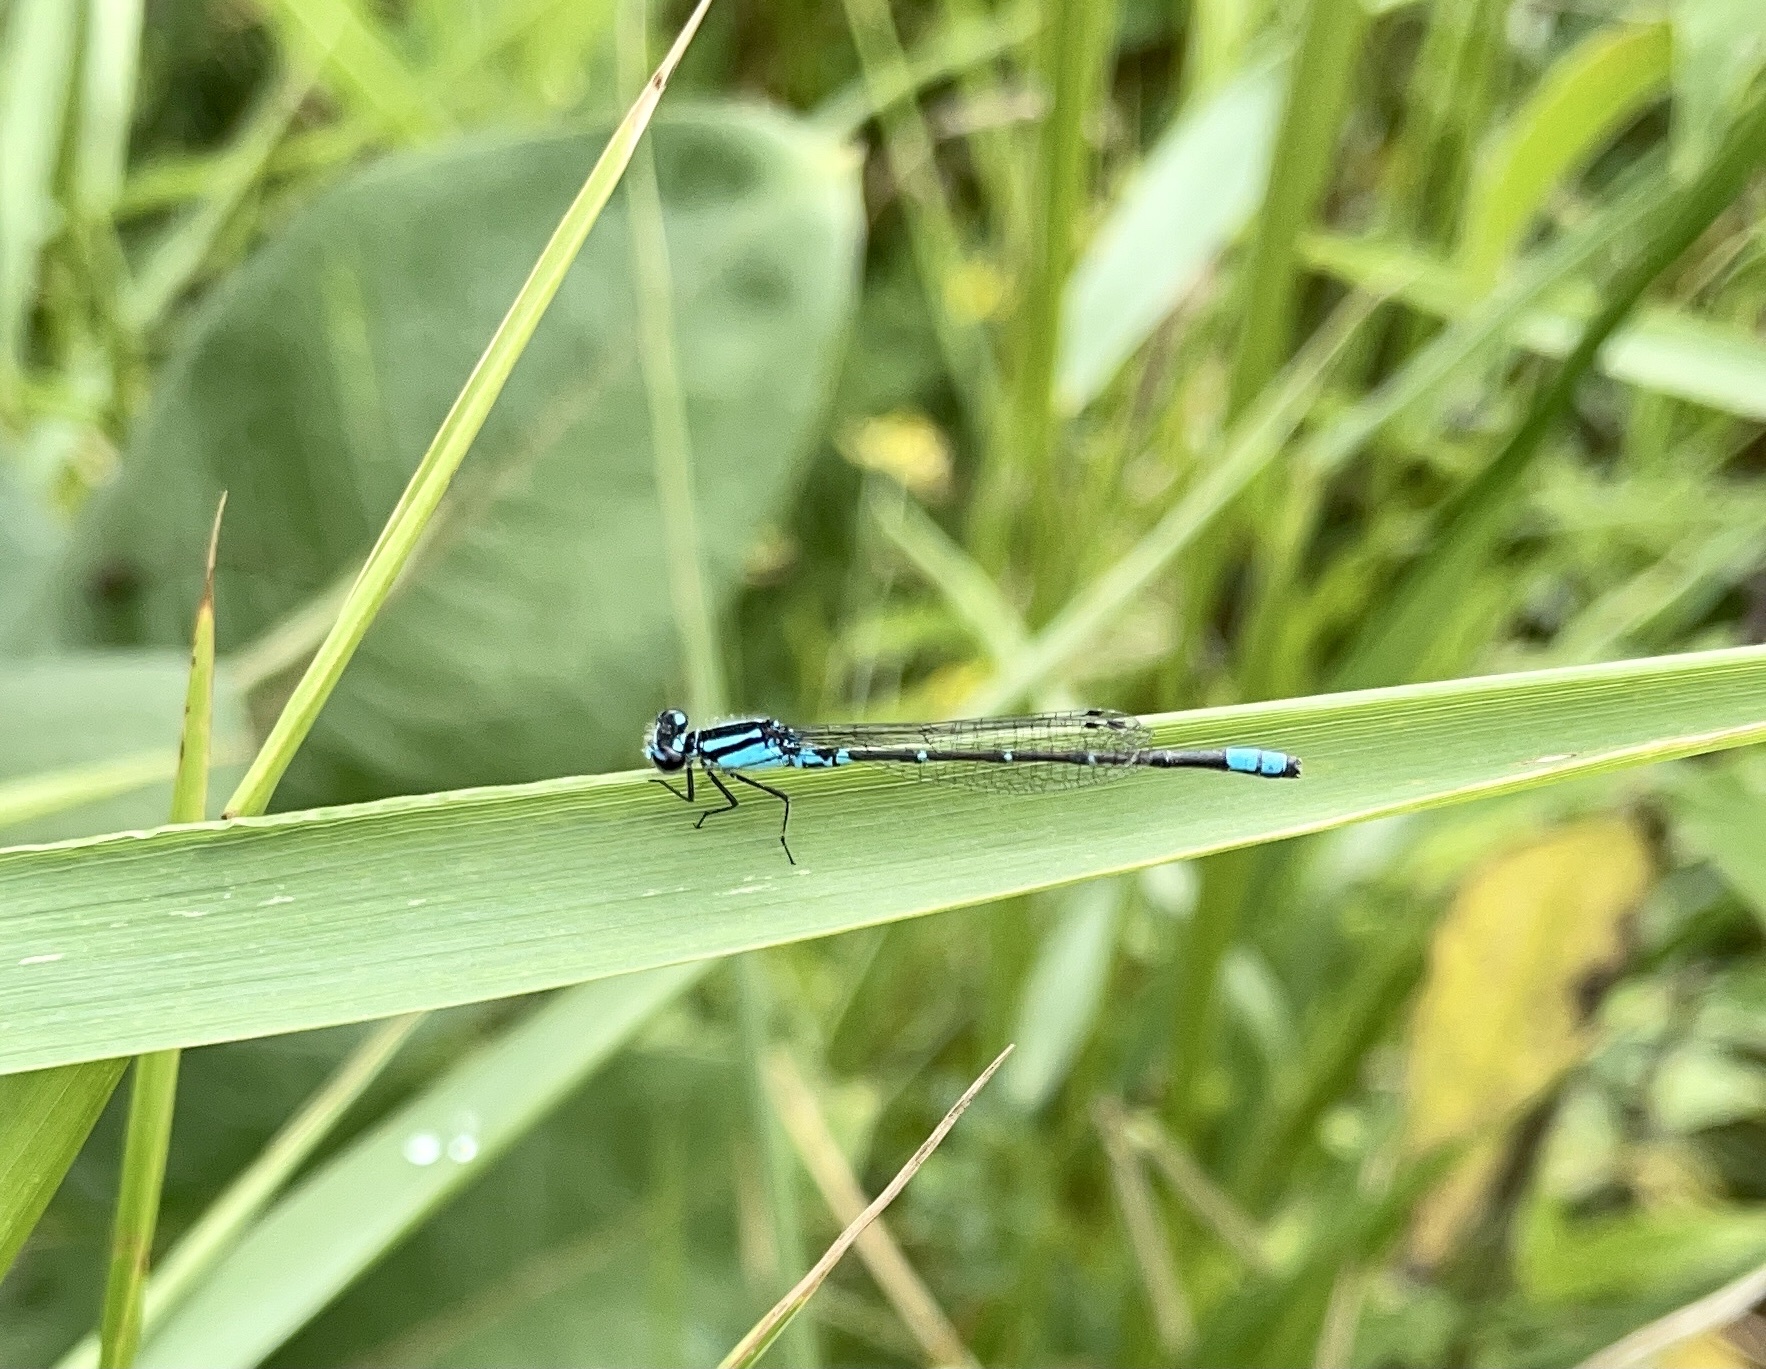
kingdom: Animalia
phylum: Arthropoda
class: Insecta
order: Odonata
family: Coenagrionidae
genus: Enallagma
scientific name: Enallagma geminatum
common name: Skimming bluet
